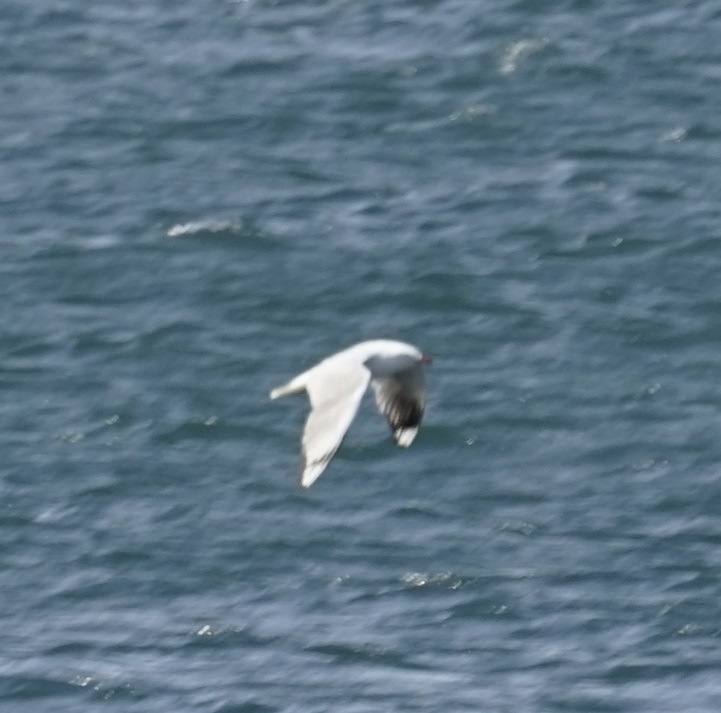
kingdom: Animalia
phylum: Chordata
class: Aves
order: Charadriiformes
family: Laridae
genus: Chroicocephalus
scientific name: Chroicocephalus novaehollandiae
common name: Silver gull
